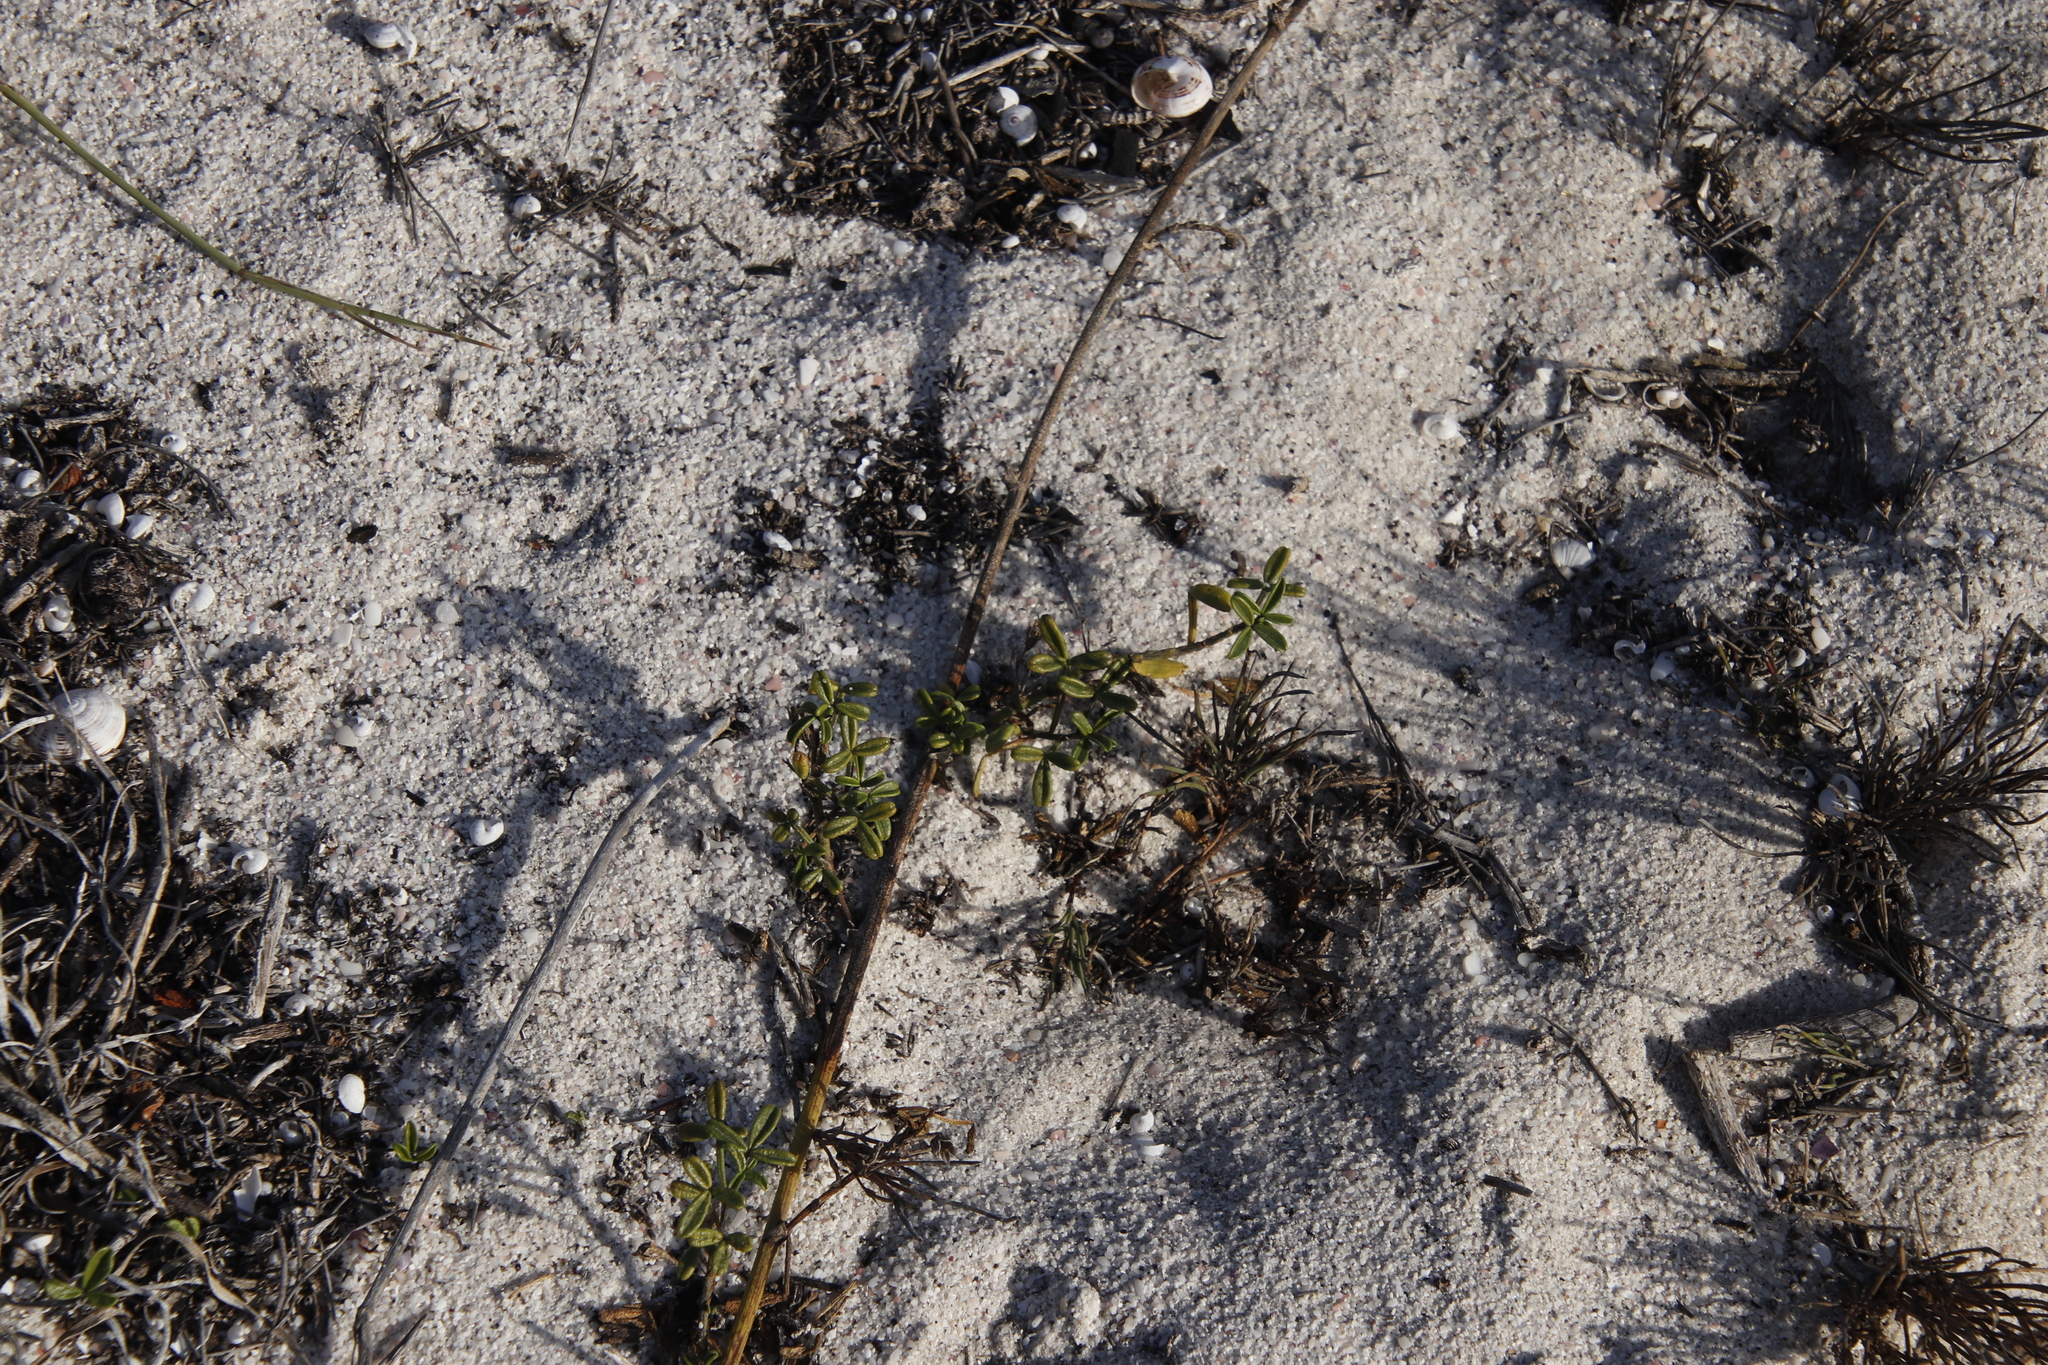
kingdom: Plantae
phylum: Tracheophyta
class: Magnoliopsida
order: Fabales
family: Fabaceae
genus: Psoralea
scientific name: Psoralea repens
